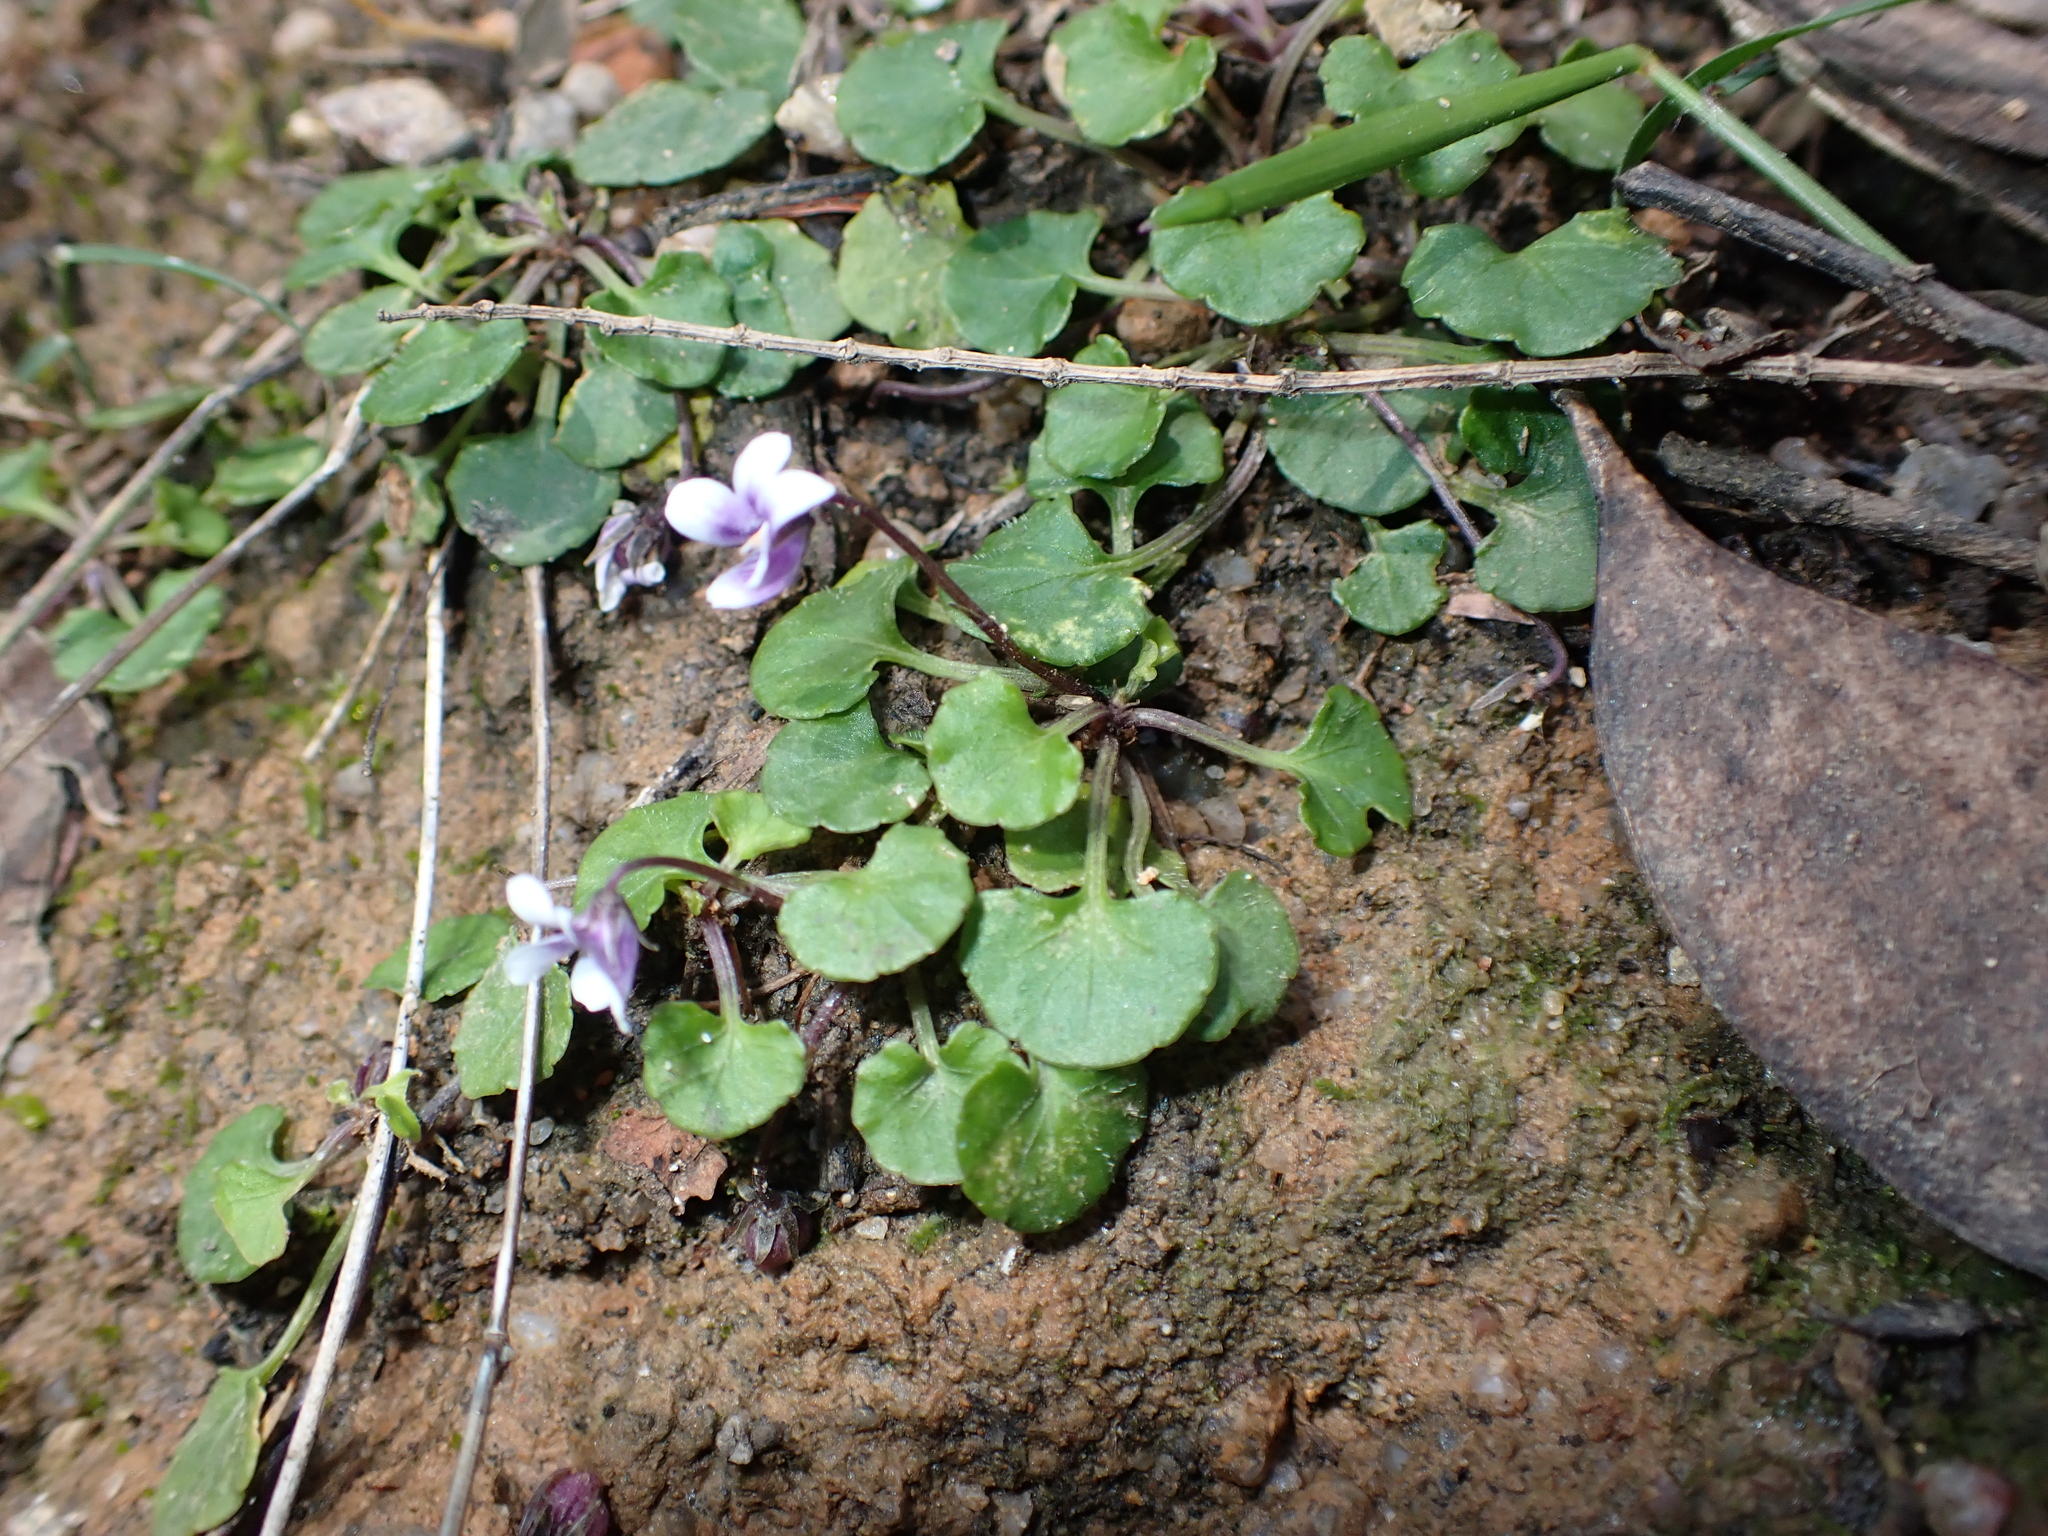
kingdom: Plantae
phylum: Tracheophyta
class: Magnoliopsida
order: Malpighiales
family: Violaceae
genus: Viola
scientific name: Viola hederacea
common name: Australian violet
